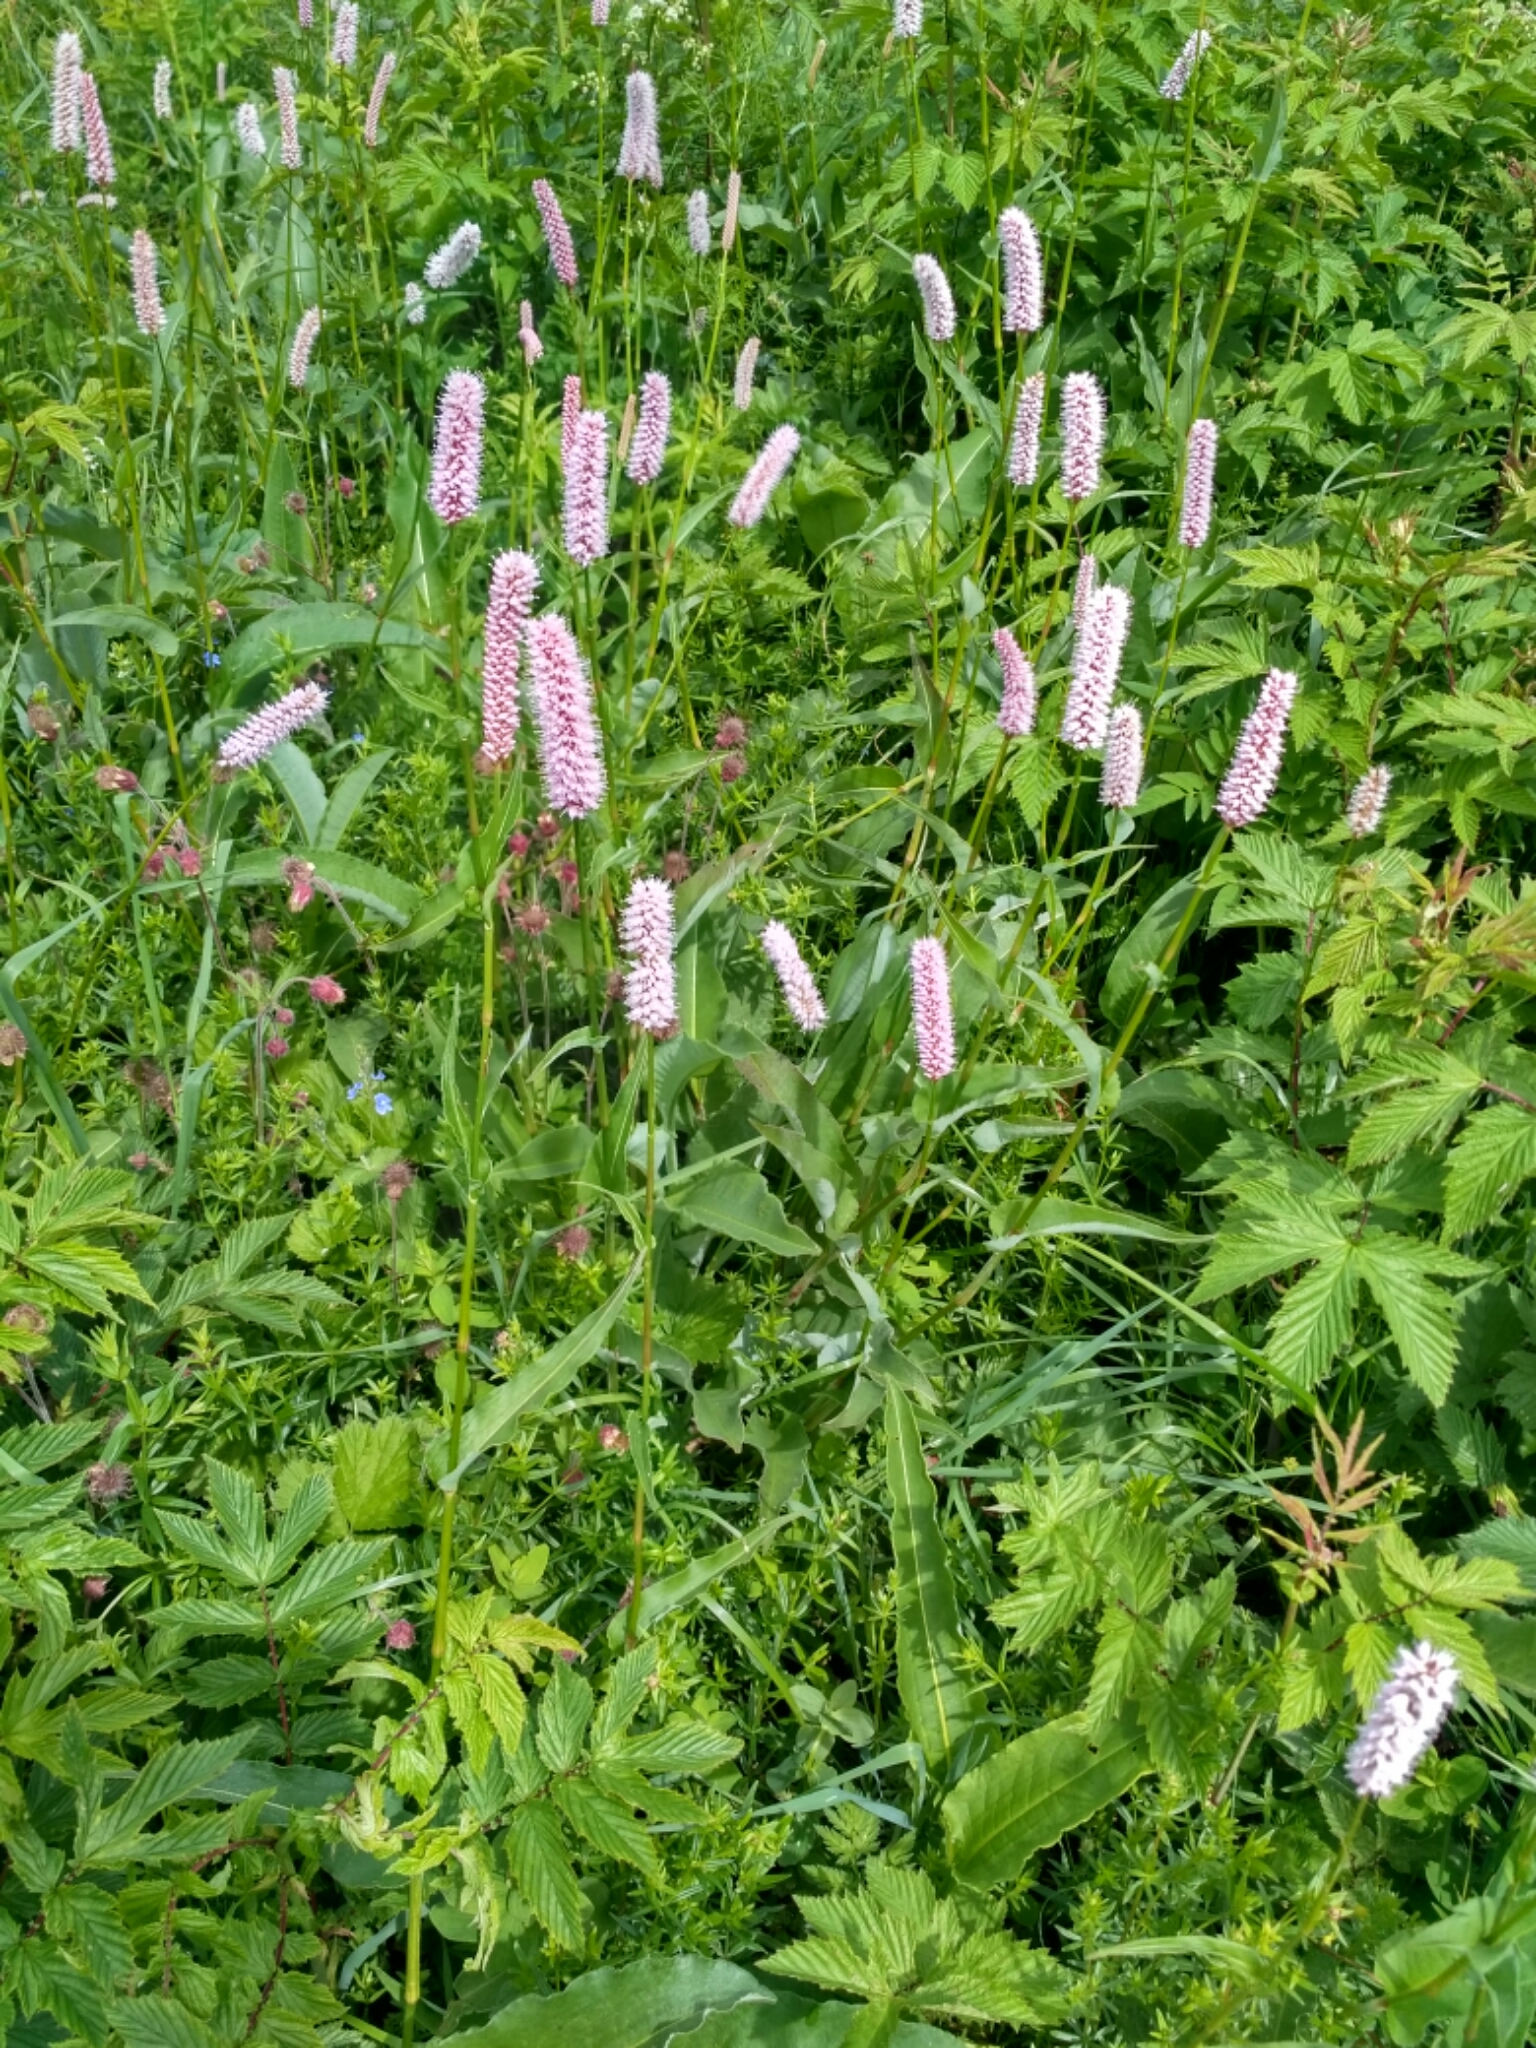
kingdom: Plantae
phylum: Tracheophyta
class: Magnoliopsida
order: Caryophyllales
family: Polygonaceae
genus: Bistorta
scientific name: Bistorta officinalis
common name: Common bistort
